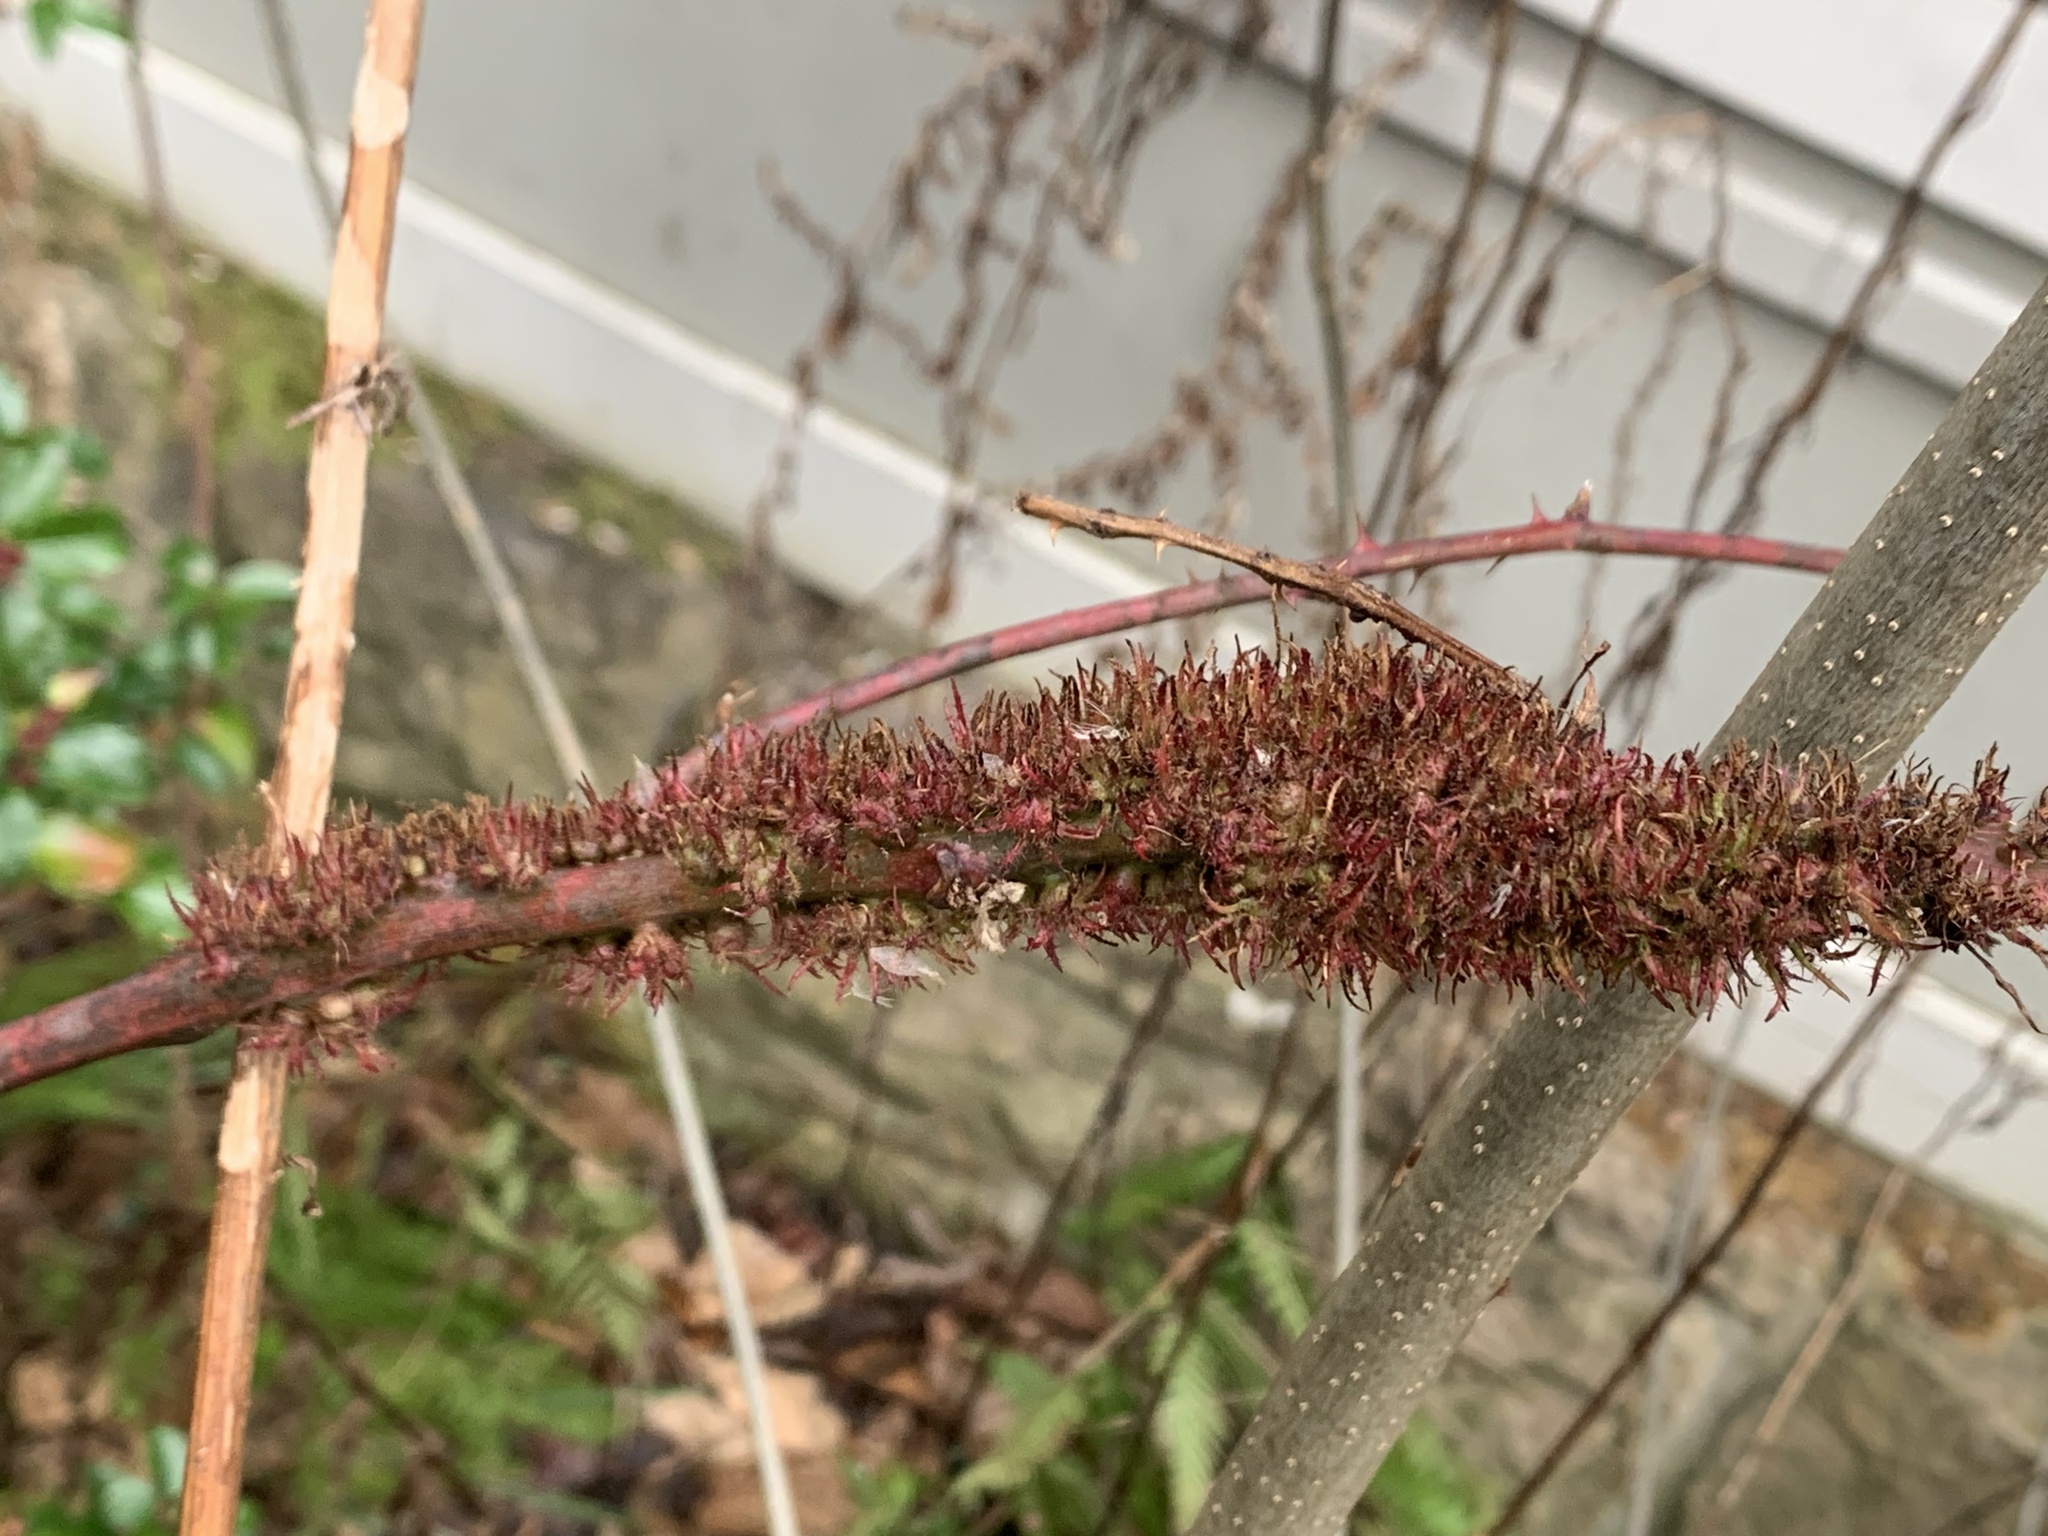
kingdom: Animalia
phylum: Arthropoda
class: Insecta
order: Hymenoptera
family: Cynipidae
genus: Diastrophus
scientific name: Diastrophus
